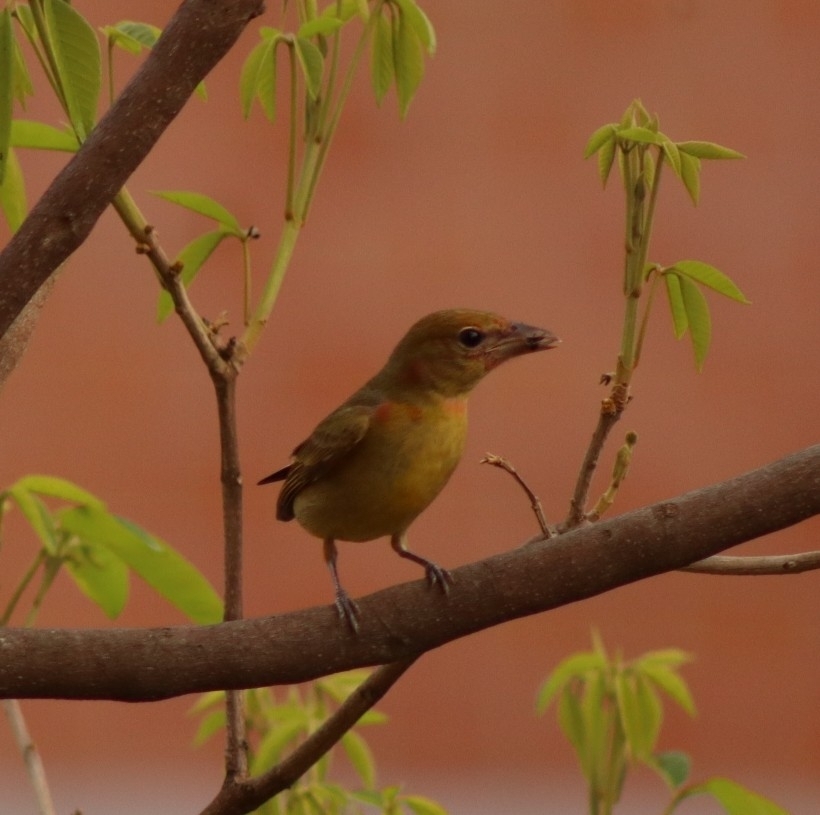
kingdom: Animalia
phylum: Chordata
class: Aves
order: Passeriformes
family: Cardinalidae
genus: Piranga
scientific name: Piranga rubra
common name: Summer tanager
